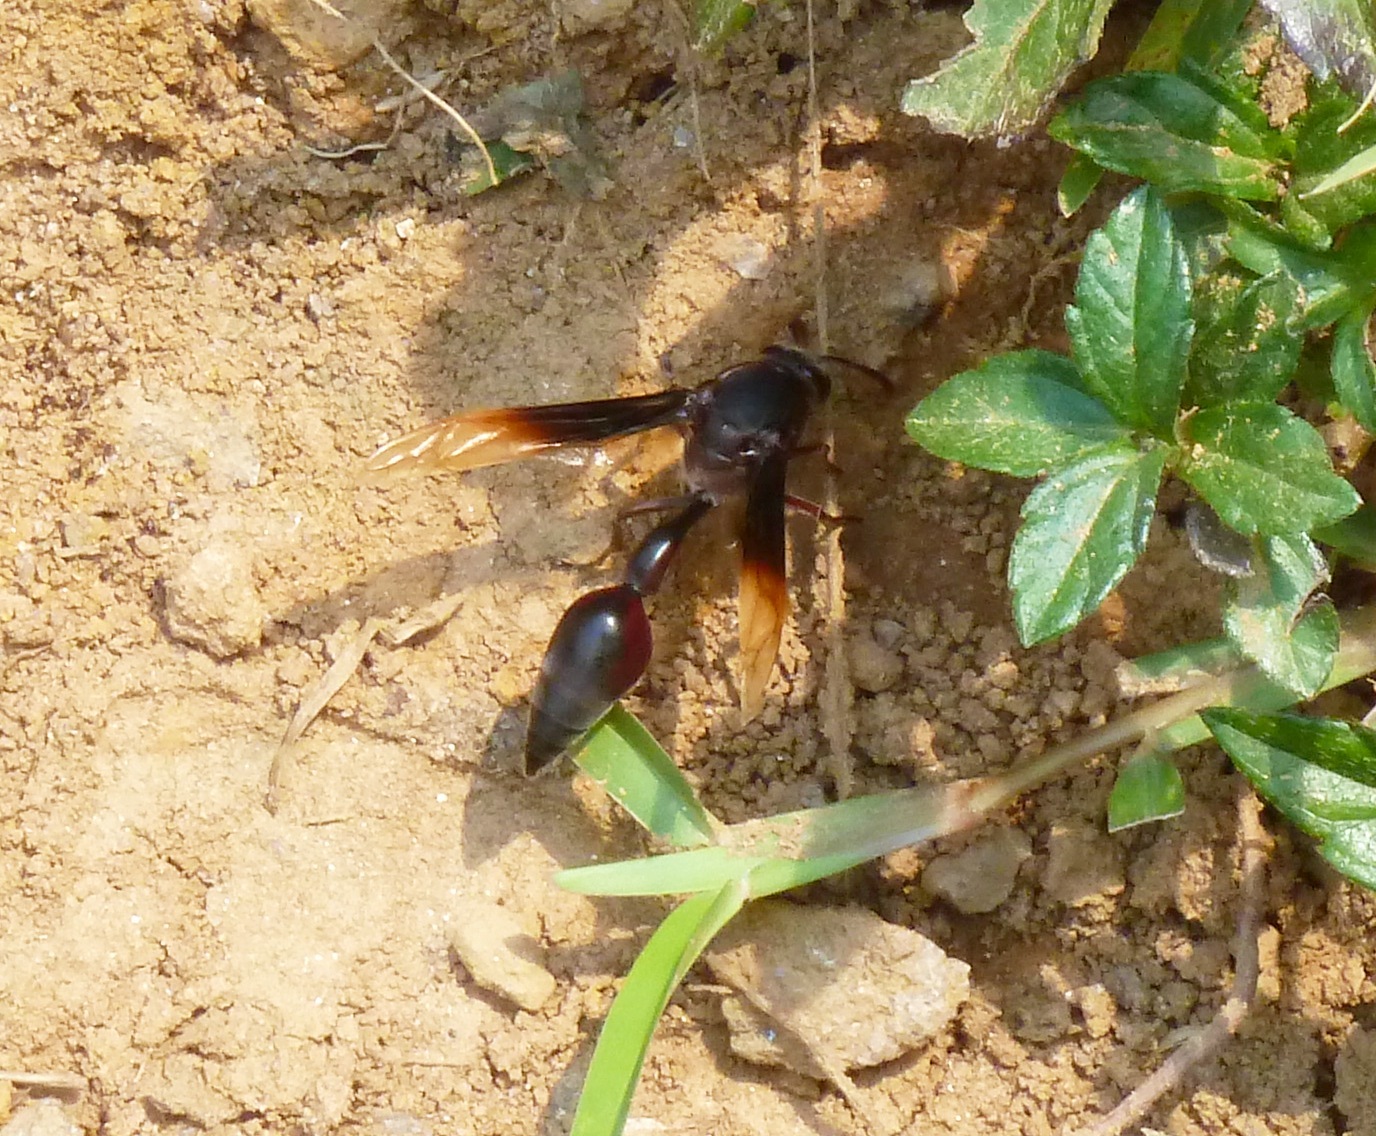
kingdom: Animalia
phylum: Arthropoda
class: Insecta
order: Hymenoptera
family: Eumenidae
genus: Delta
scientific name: Delta regina
